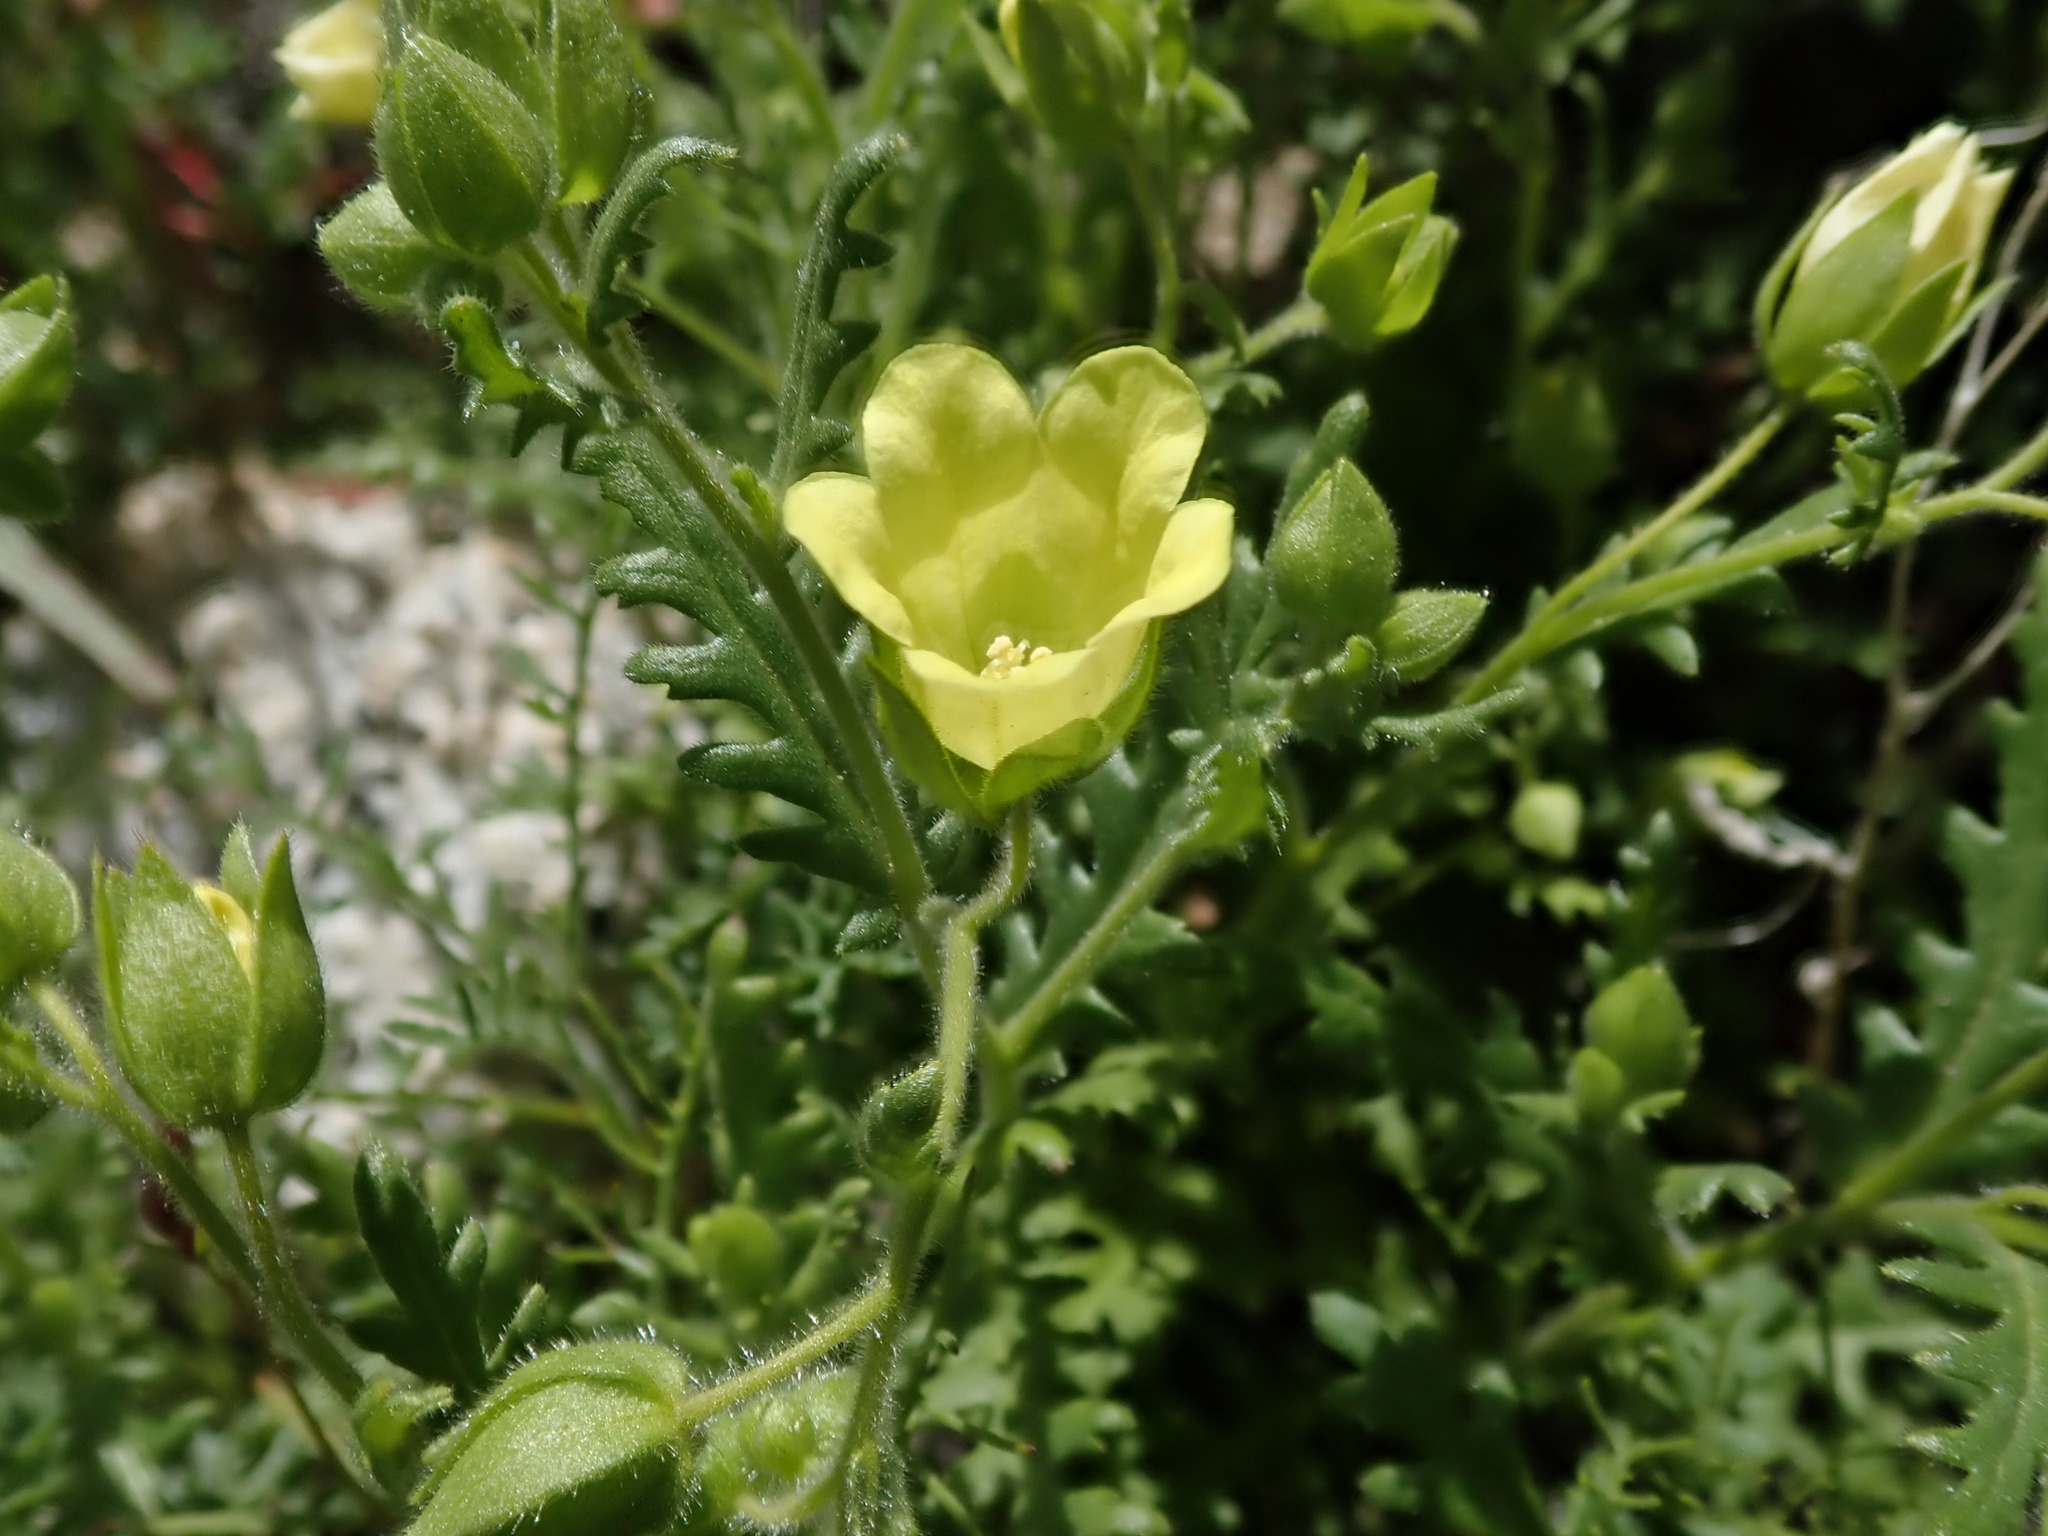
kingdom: Plantae
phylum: Tracheophyta
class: Magnoliopsida
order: Boraginales
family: Hydrophyllaceae
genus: Emmenanthe
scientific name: Emmenanthe penduliflora
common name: Whispering-bells
